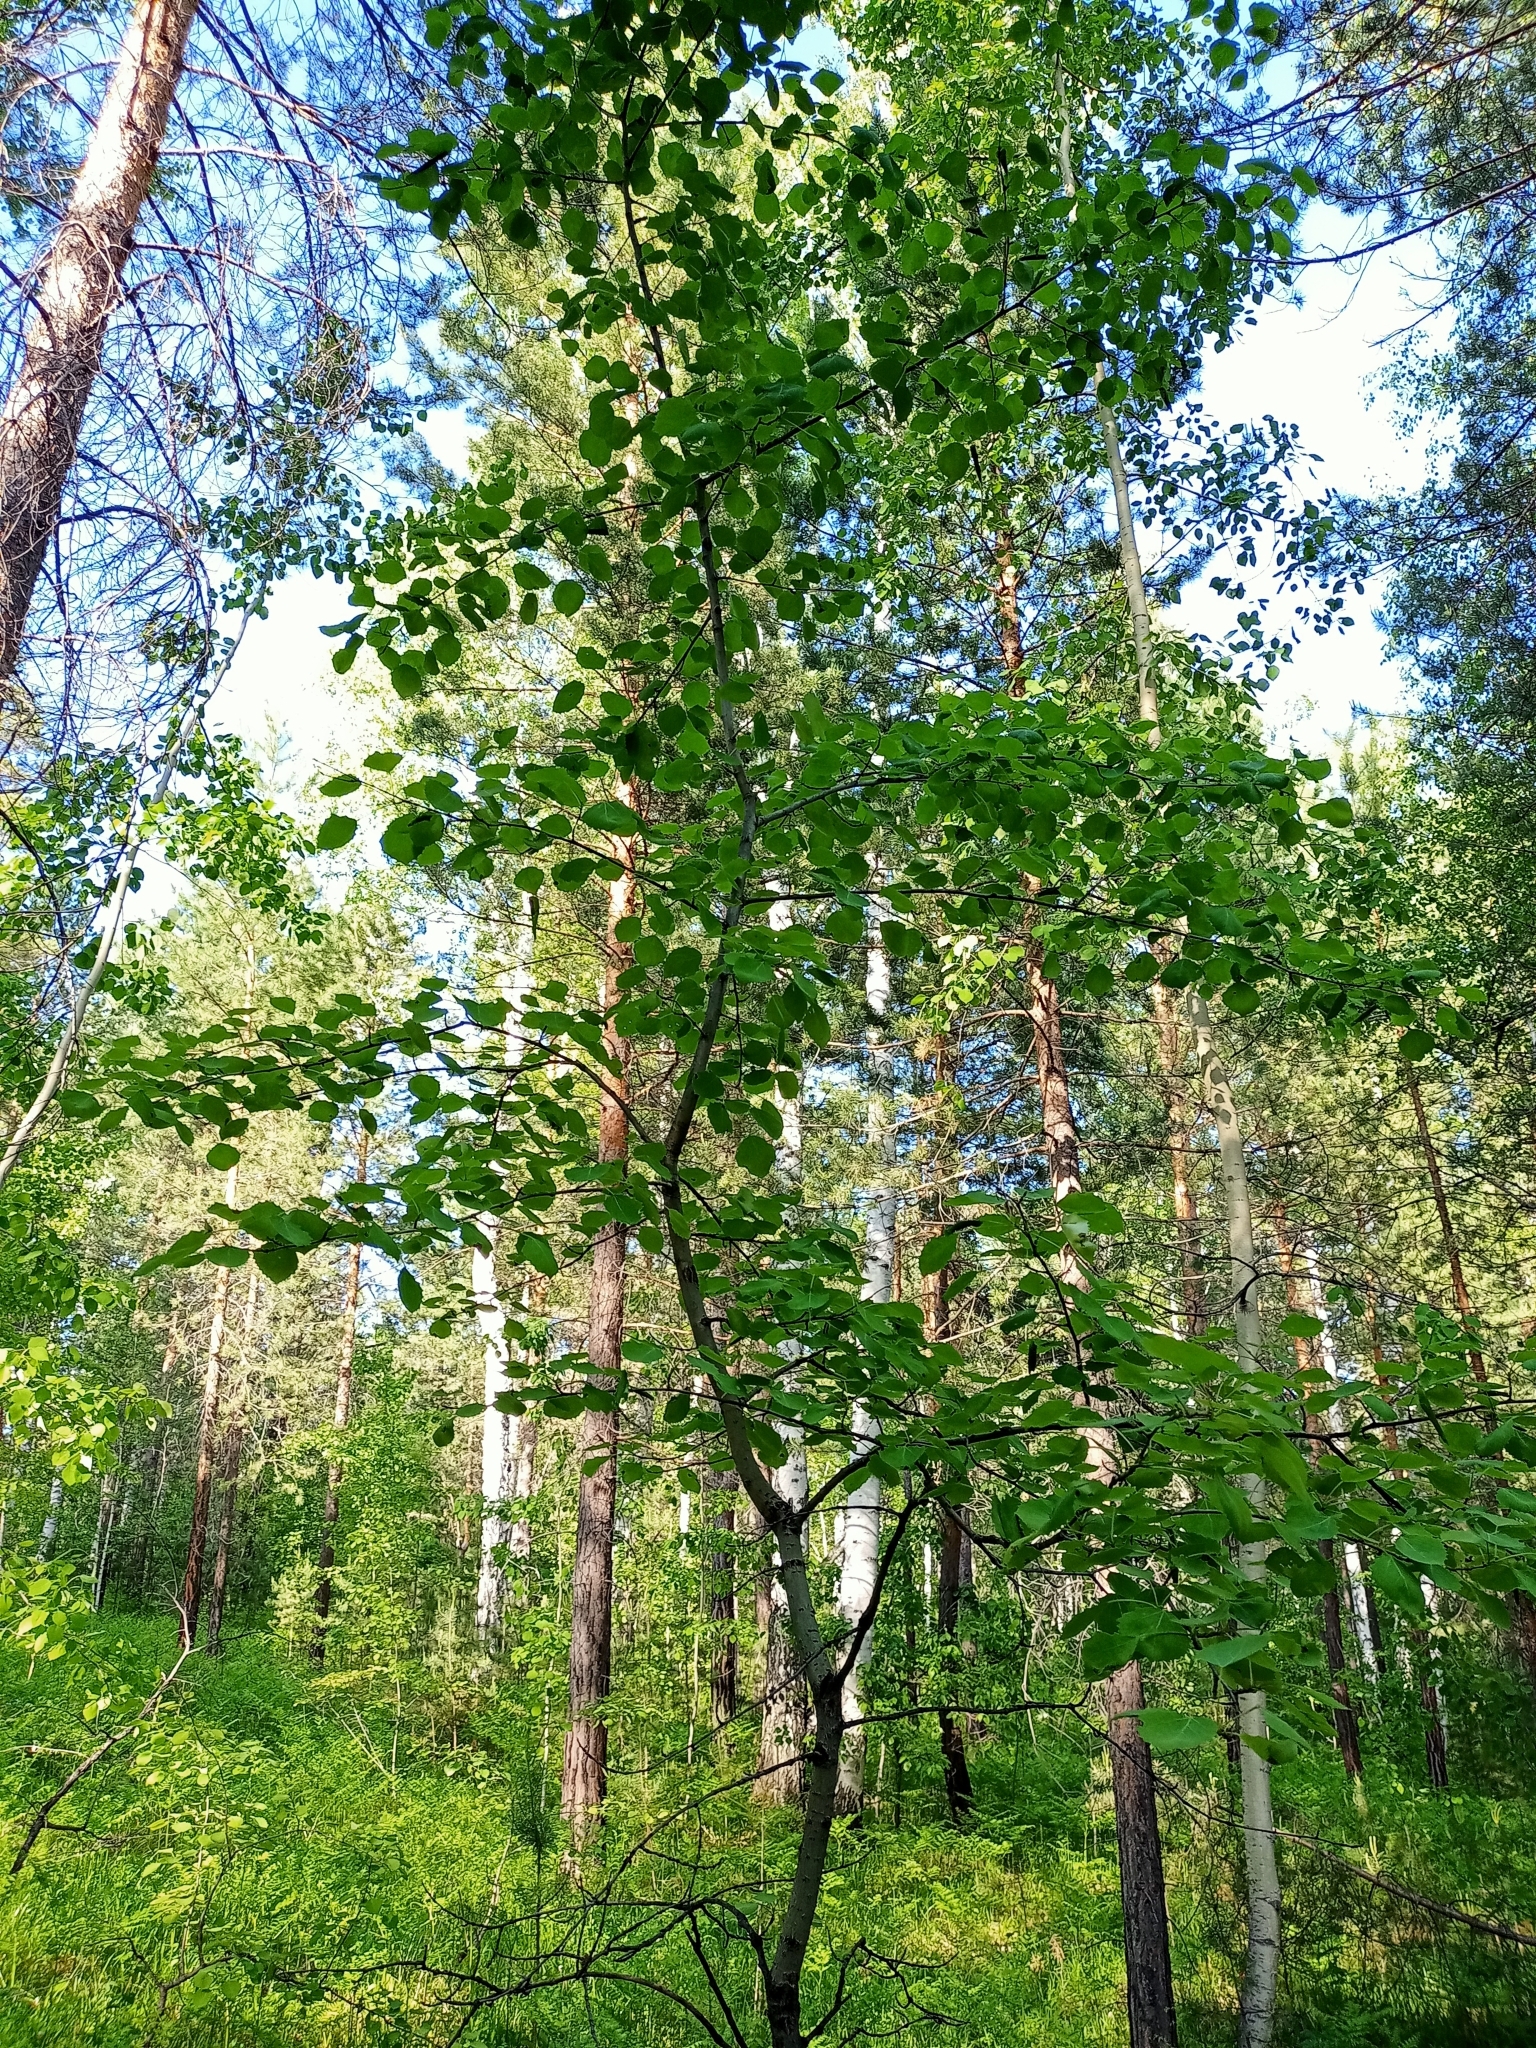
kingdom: Plantae
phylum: Tracheophyta
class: Magnoliopsida
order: Malpighiales
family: Salicaceae
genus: Populus
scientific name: Populus tremula
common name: European aspen
